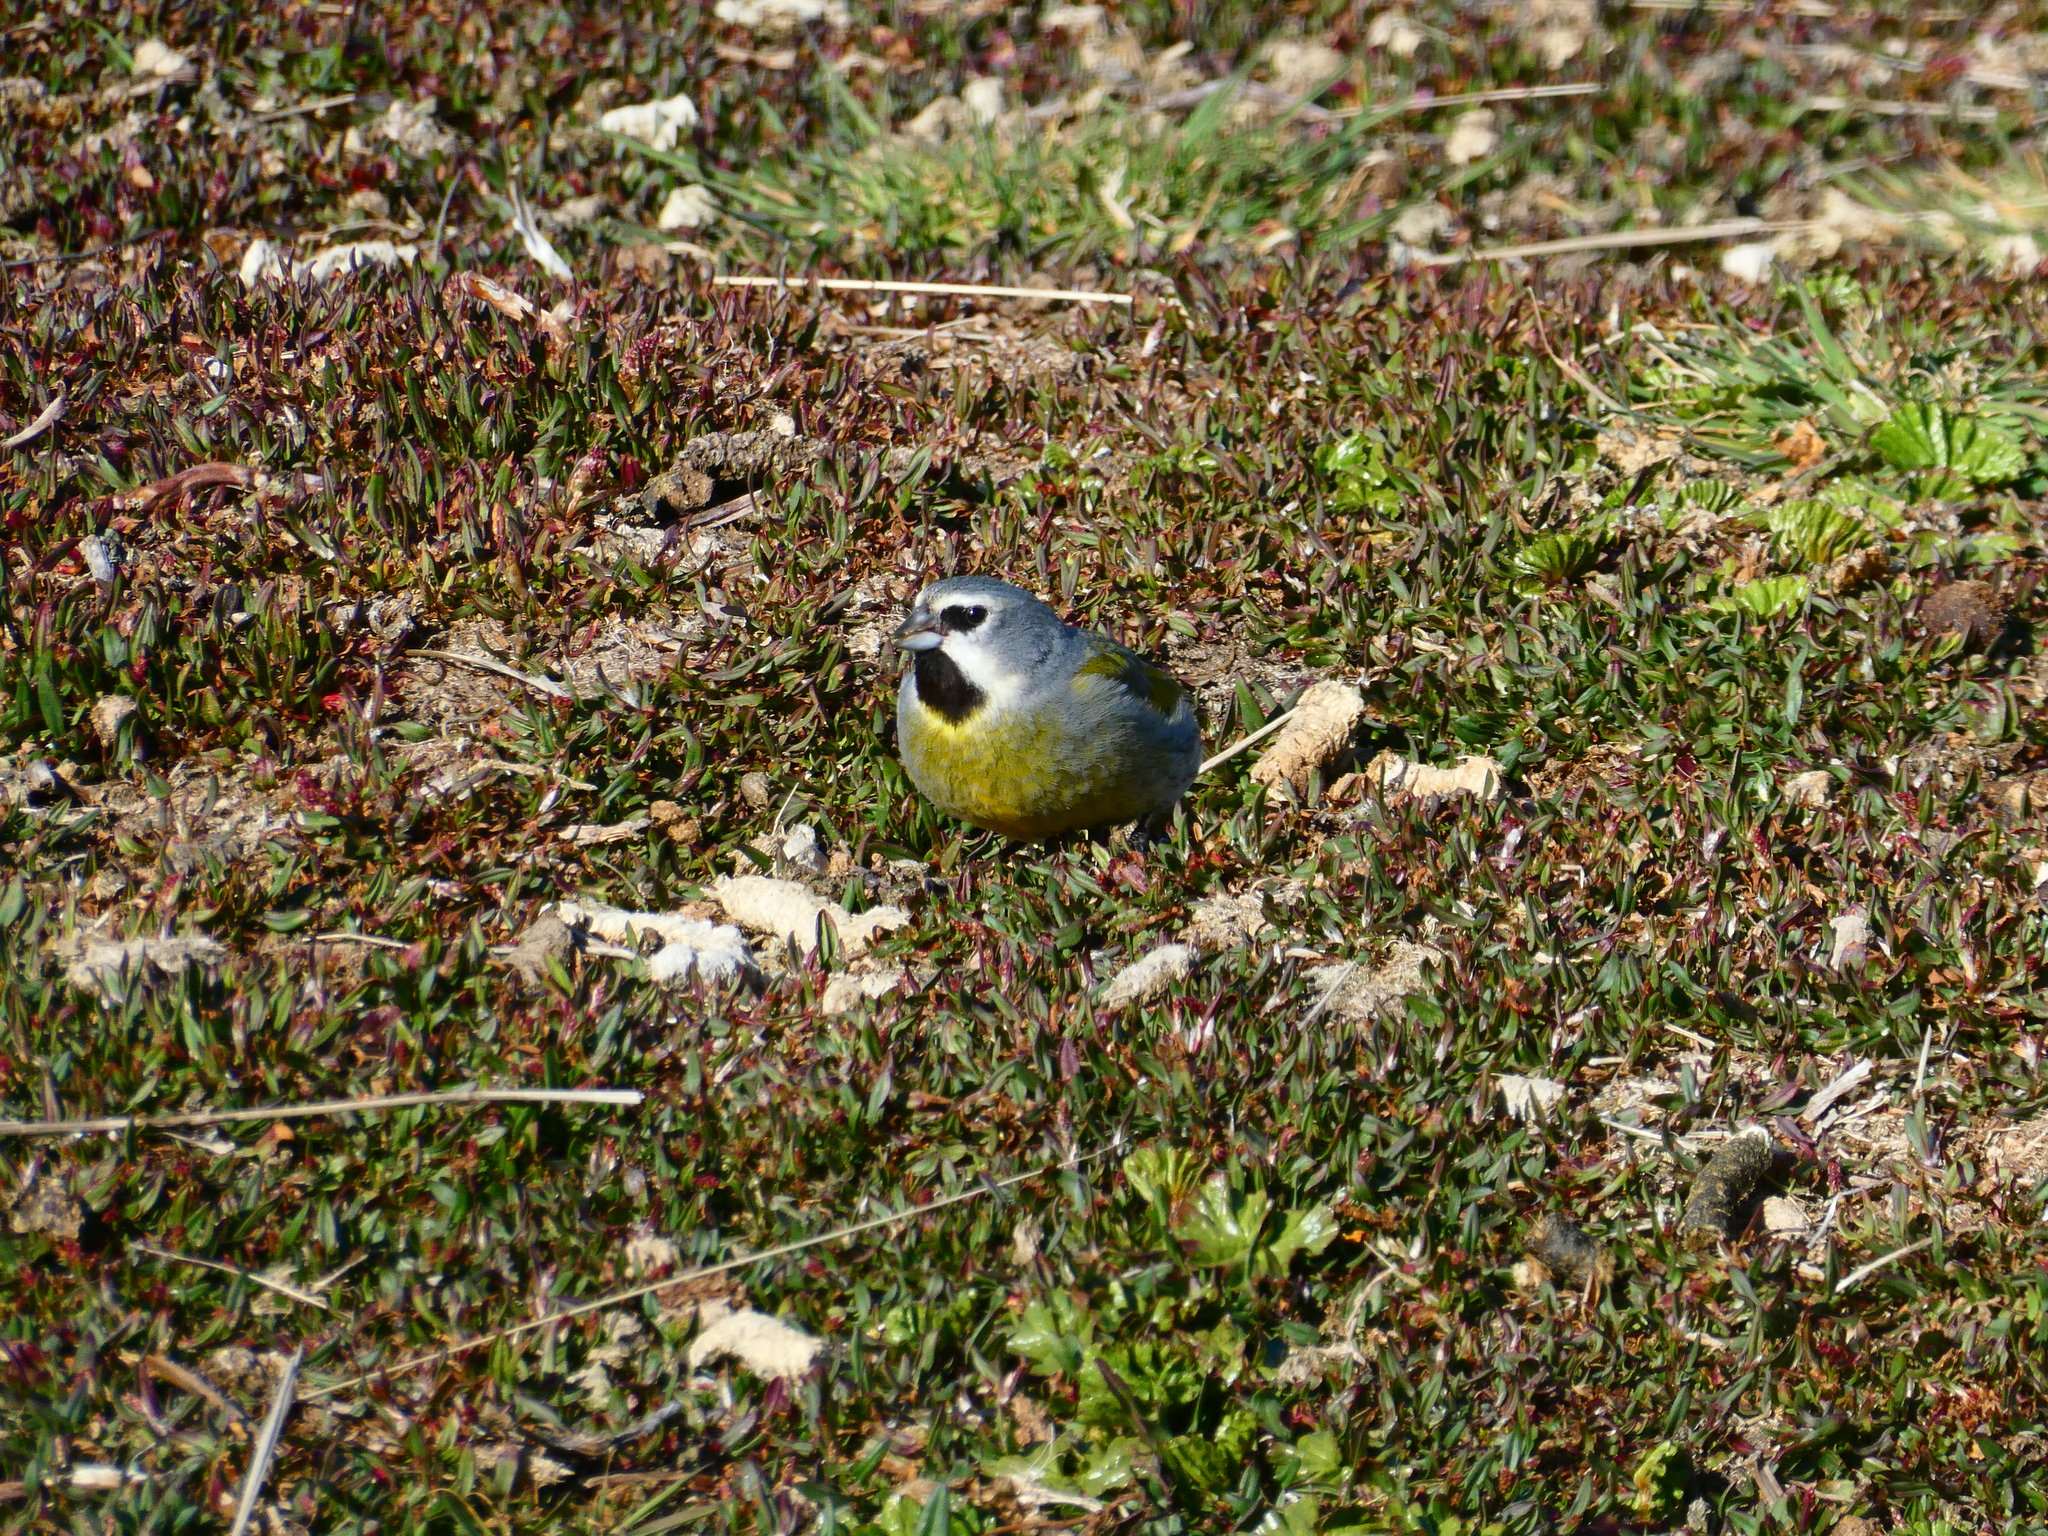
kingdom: Animalia
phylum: Chordata
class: Aves
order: Passeriformes
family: Thraupidae
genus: Melanodera
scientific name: Melanodera melanodera
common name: White-bridled finch
